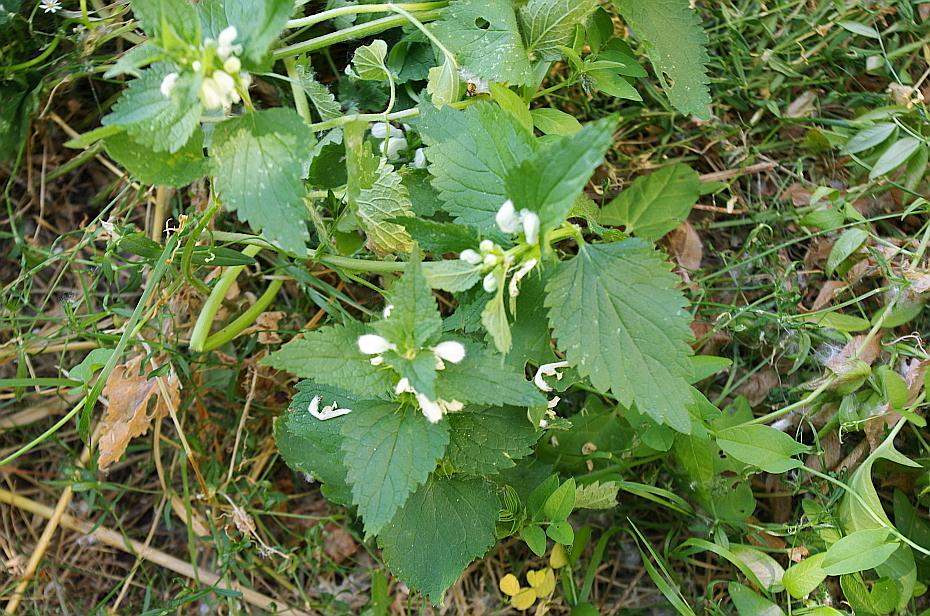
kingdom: Plantae
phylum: Tracheophyta
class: Magnoliopsida
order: Lamiales
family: Lamiaceae
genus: Lamium
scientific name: Lamium album
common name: White dead-nettle
